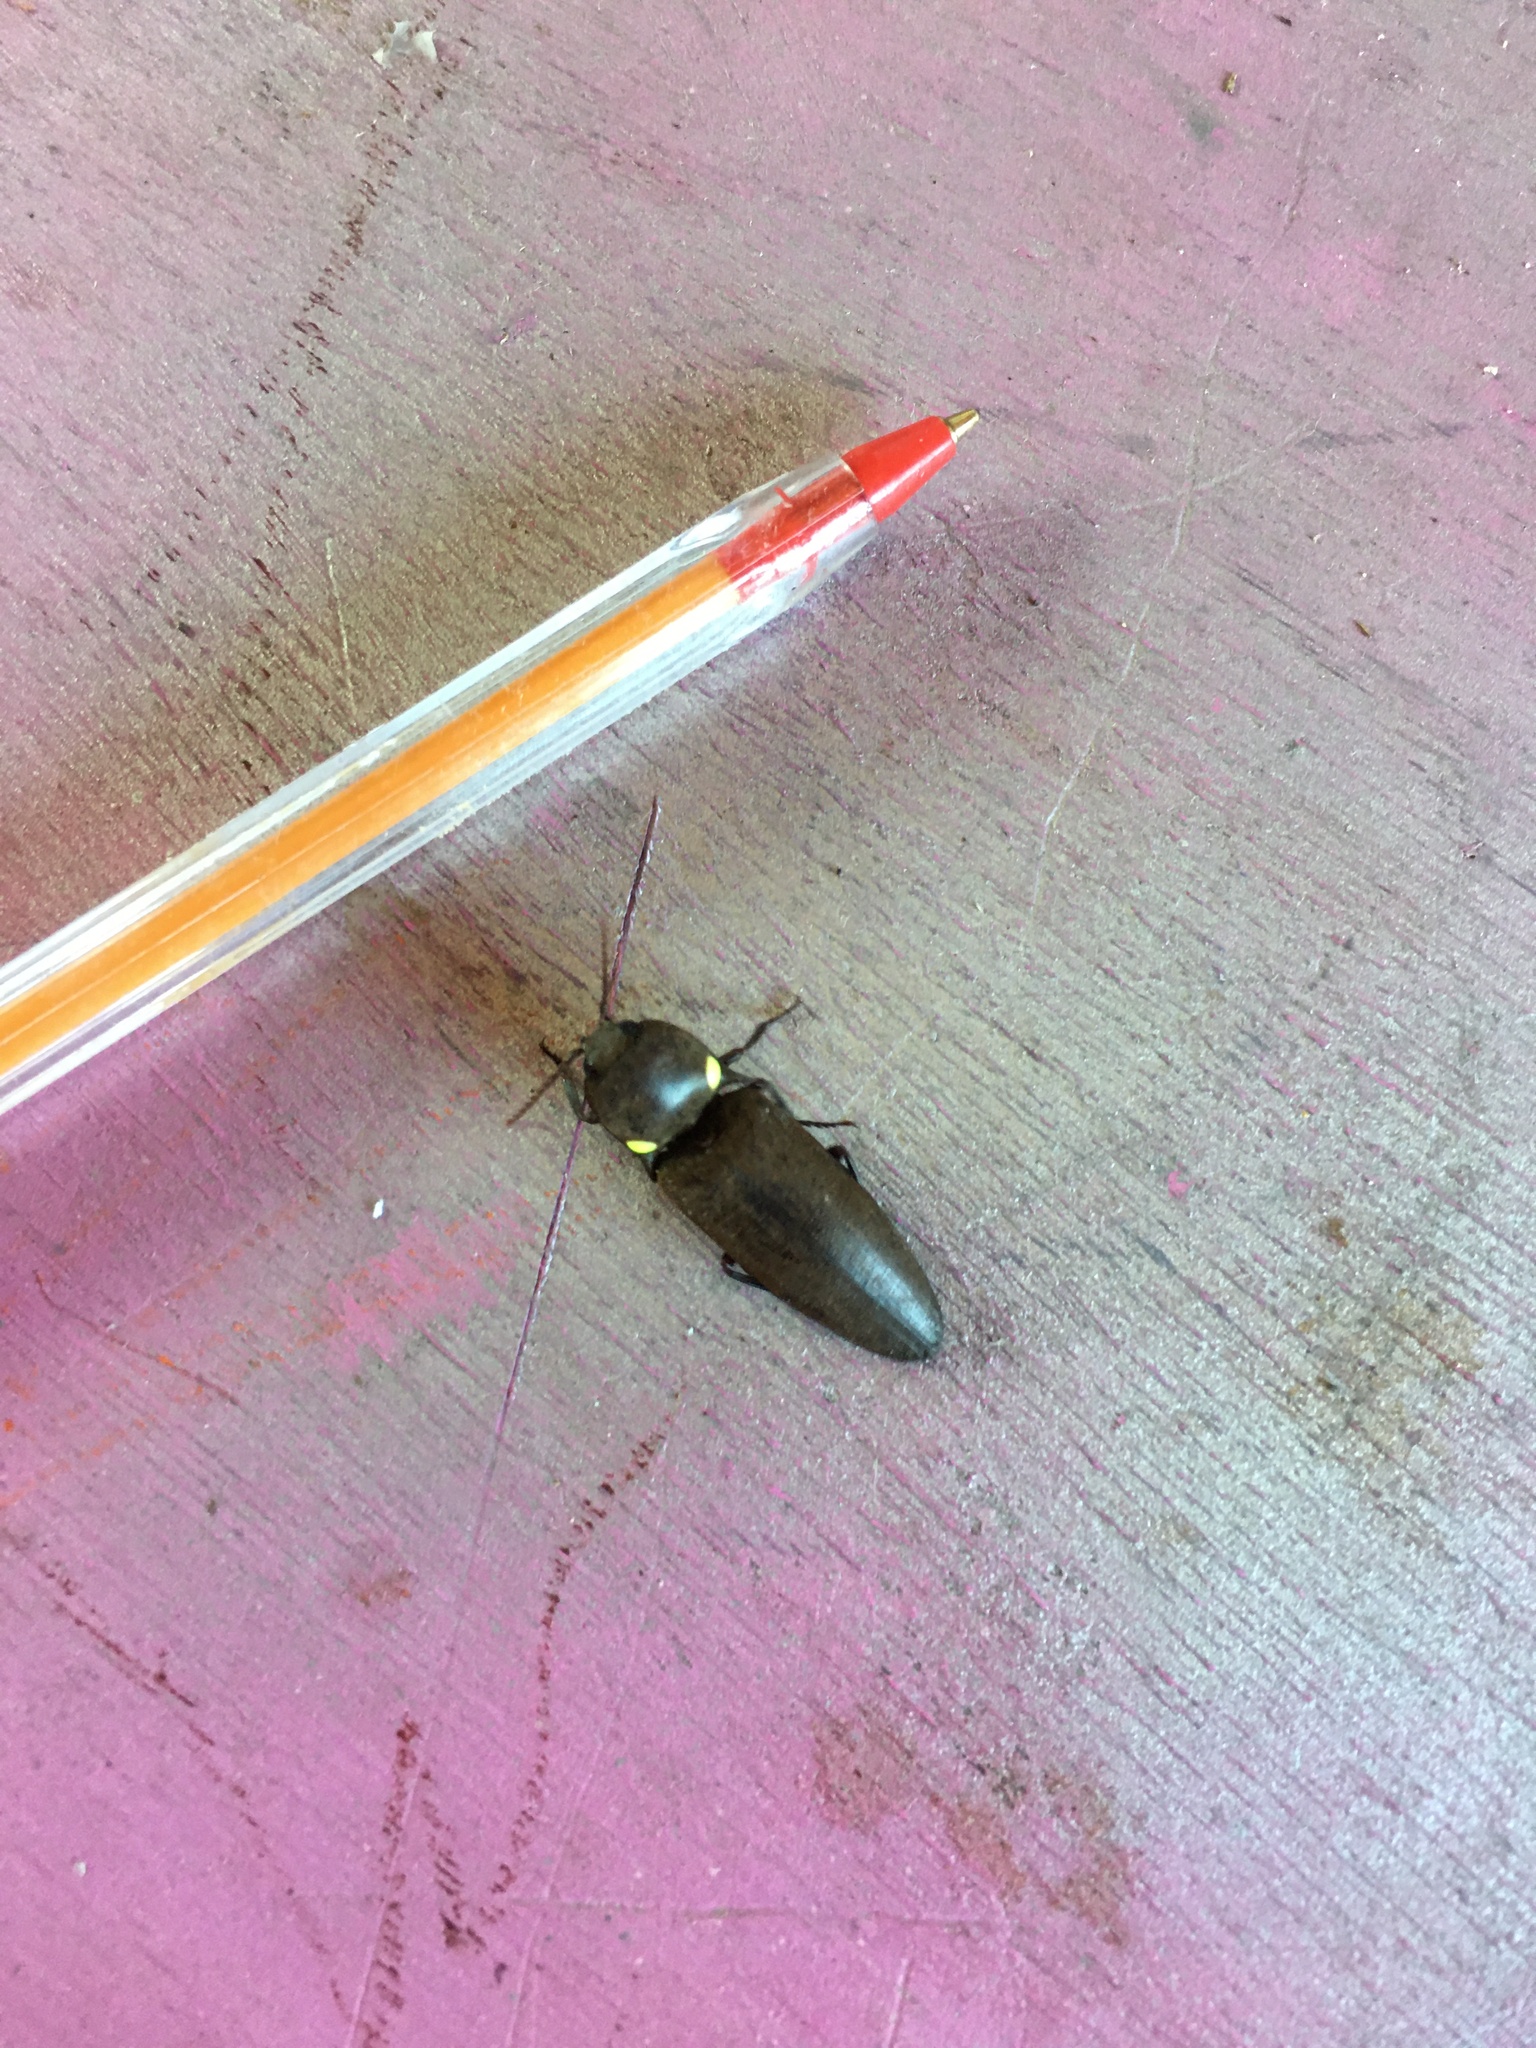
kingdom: Animalia
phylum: Arthropoda
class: Insecta
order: Coleoptera
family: Elateridae
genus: Pyrophorus
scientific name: Pyrophorus
